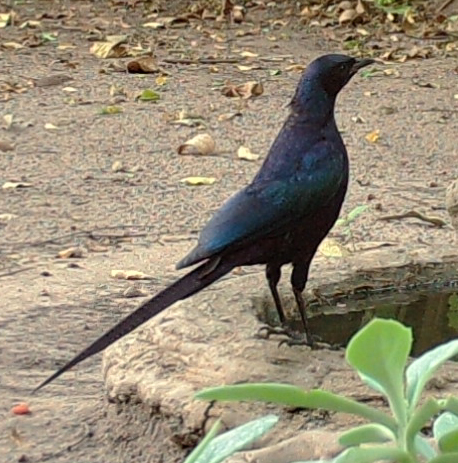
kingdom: Animalia
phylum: Chordata
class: Aves
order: Passeriformes
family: Sturnidae
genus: Lamprotornis
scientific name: Lamprotornis mevesii
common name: Meves's starling
